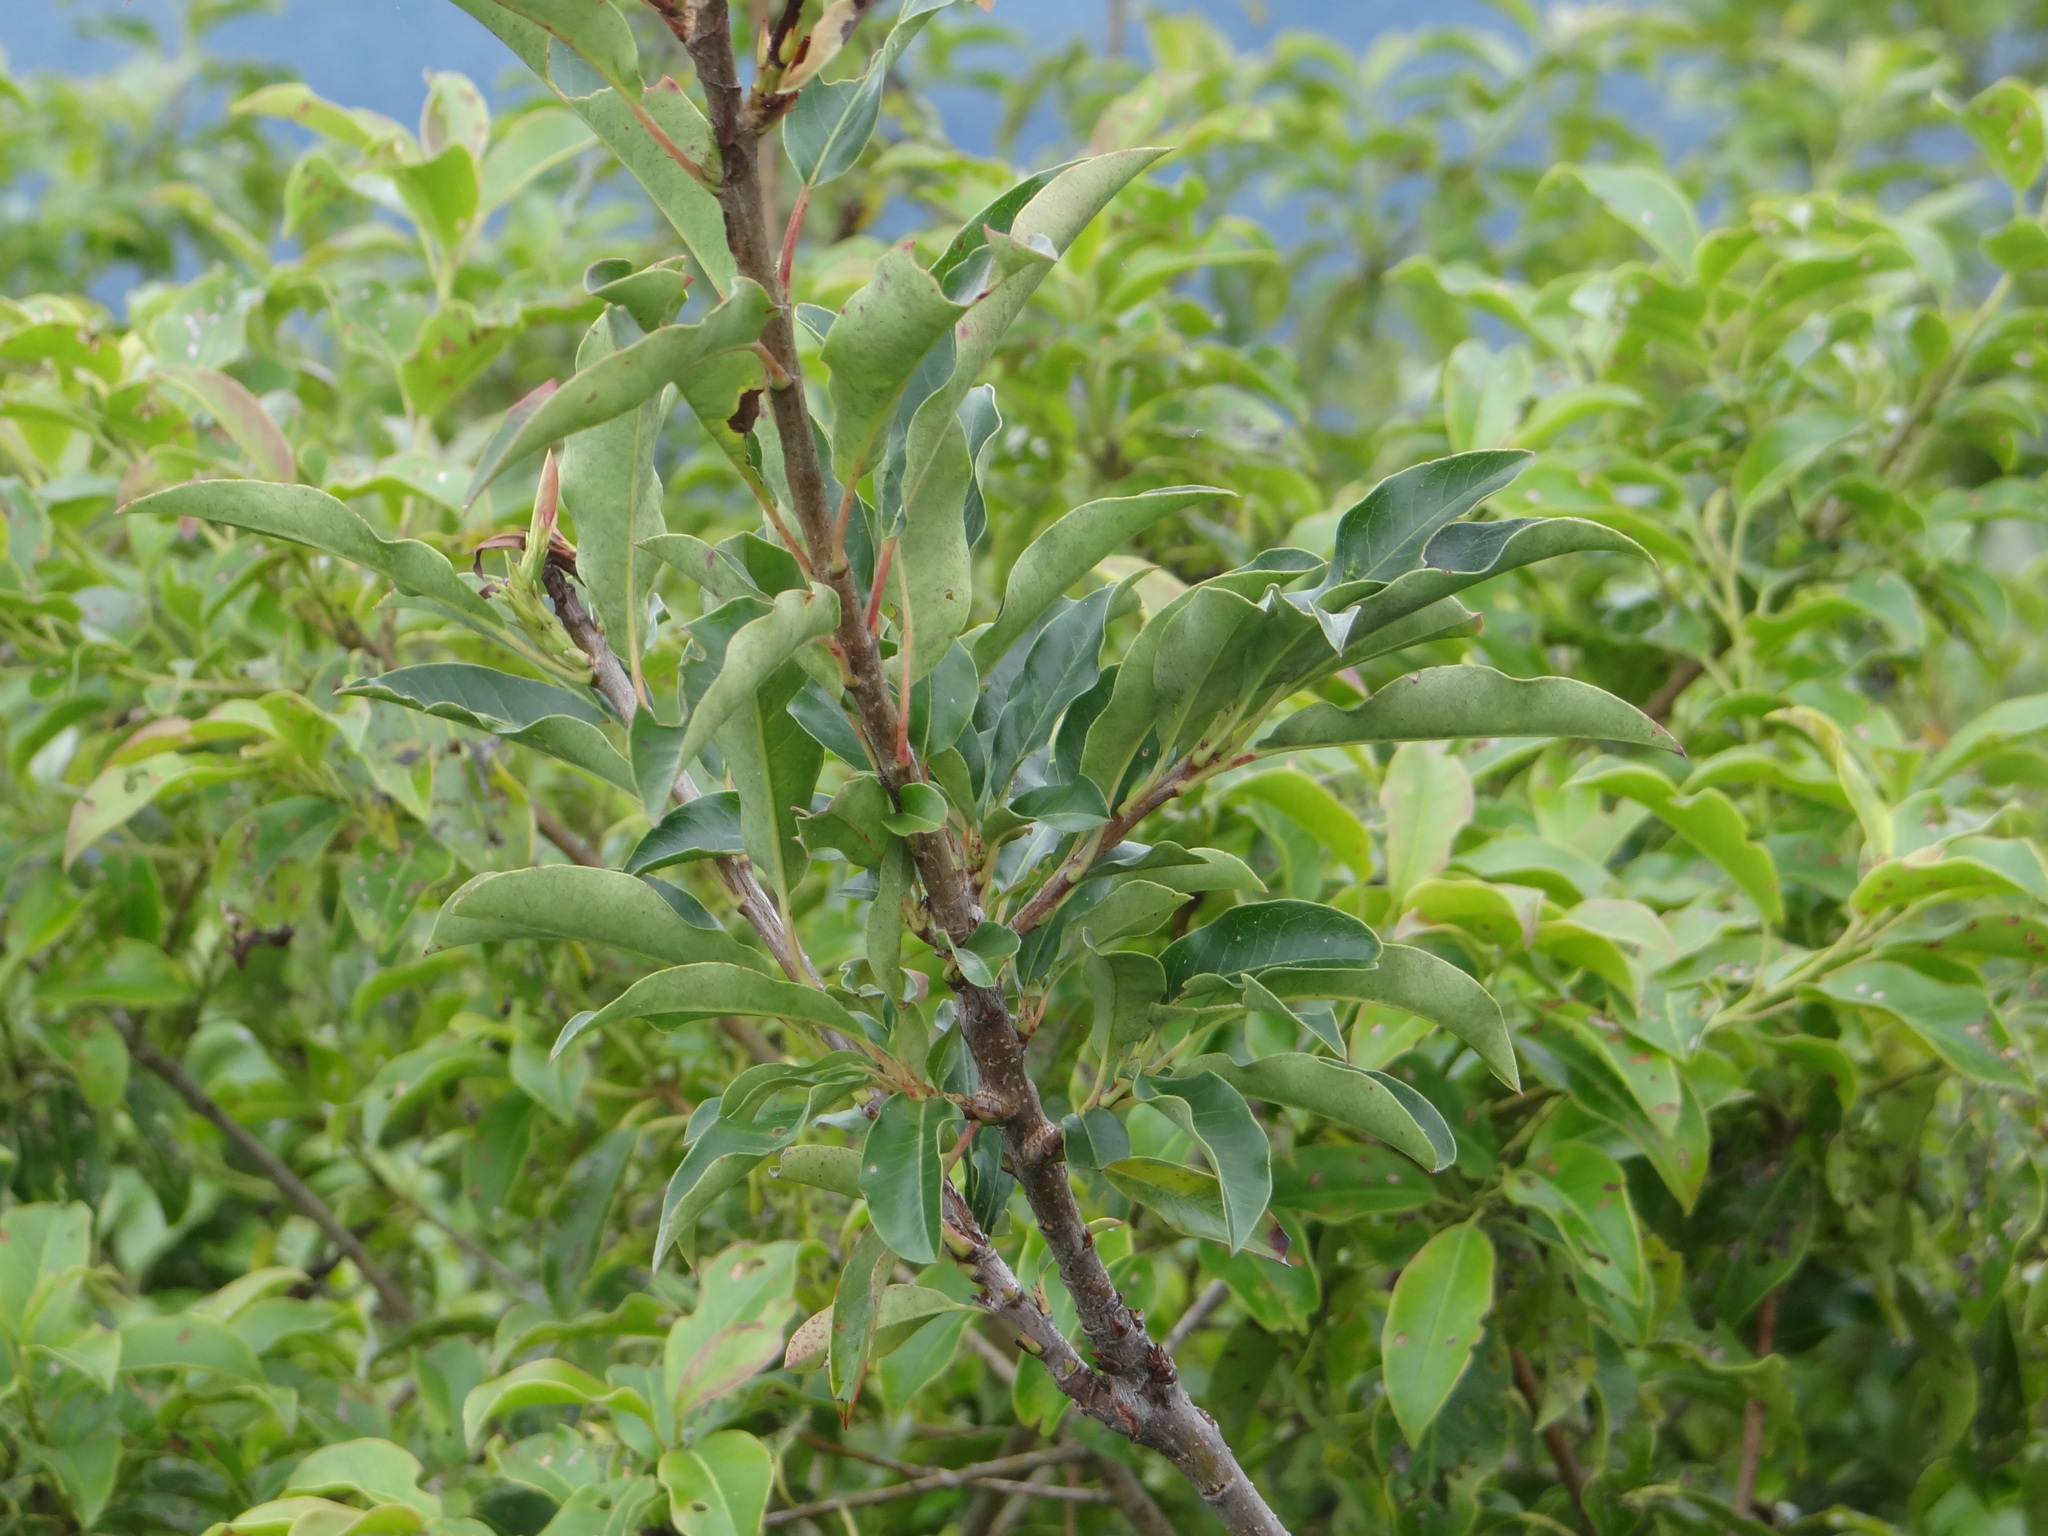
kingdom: Plantae
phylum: Tracheophyta
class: Magnoliopsida
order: Rosales
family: Rosaceae
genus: Stranvaesia
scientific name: Stranvaesia davidiana
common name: Chinese photinia
